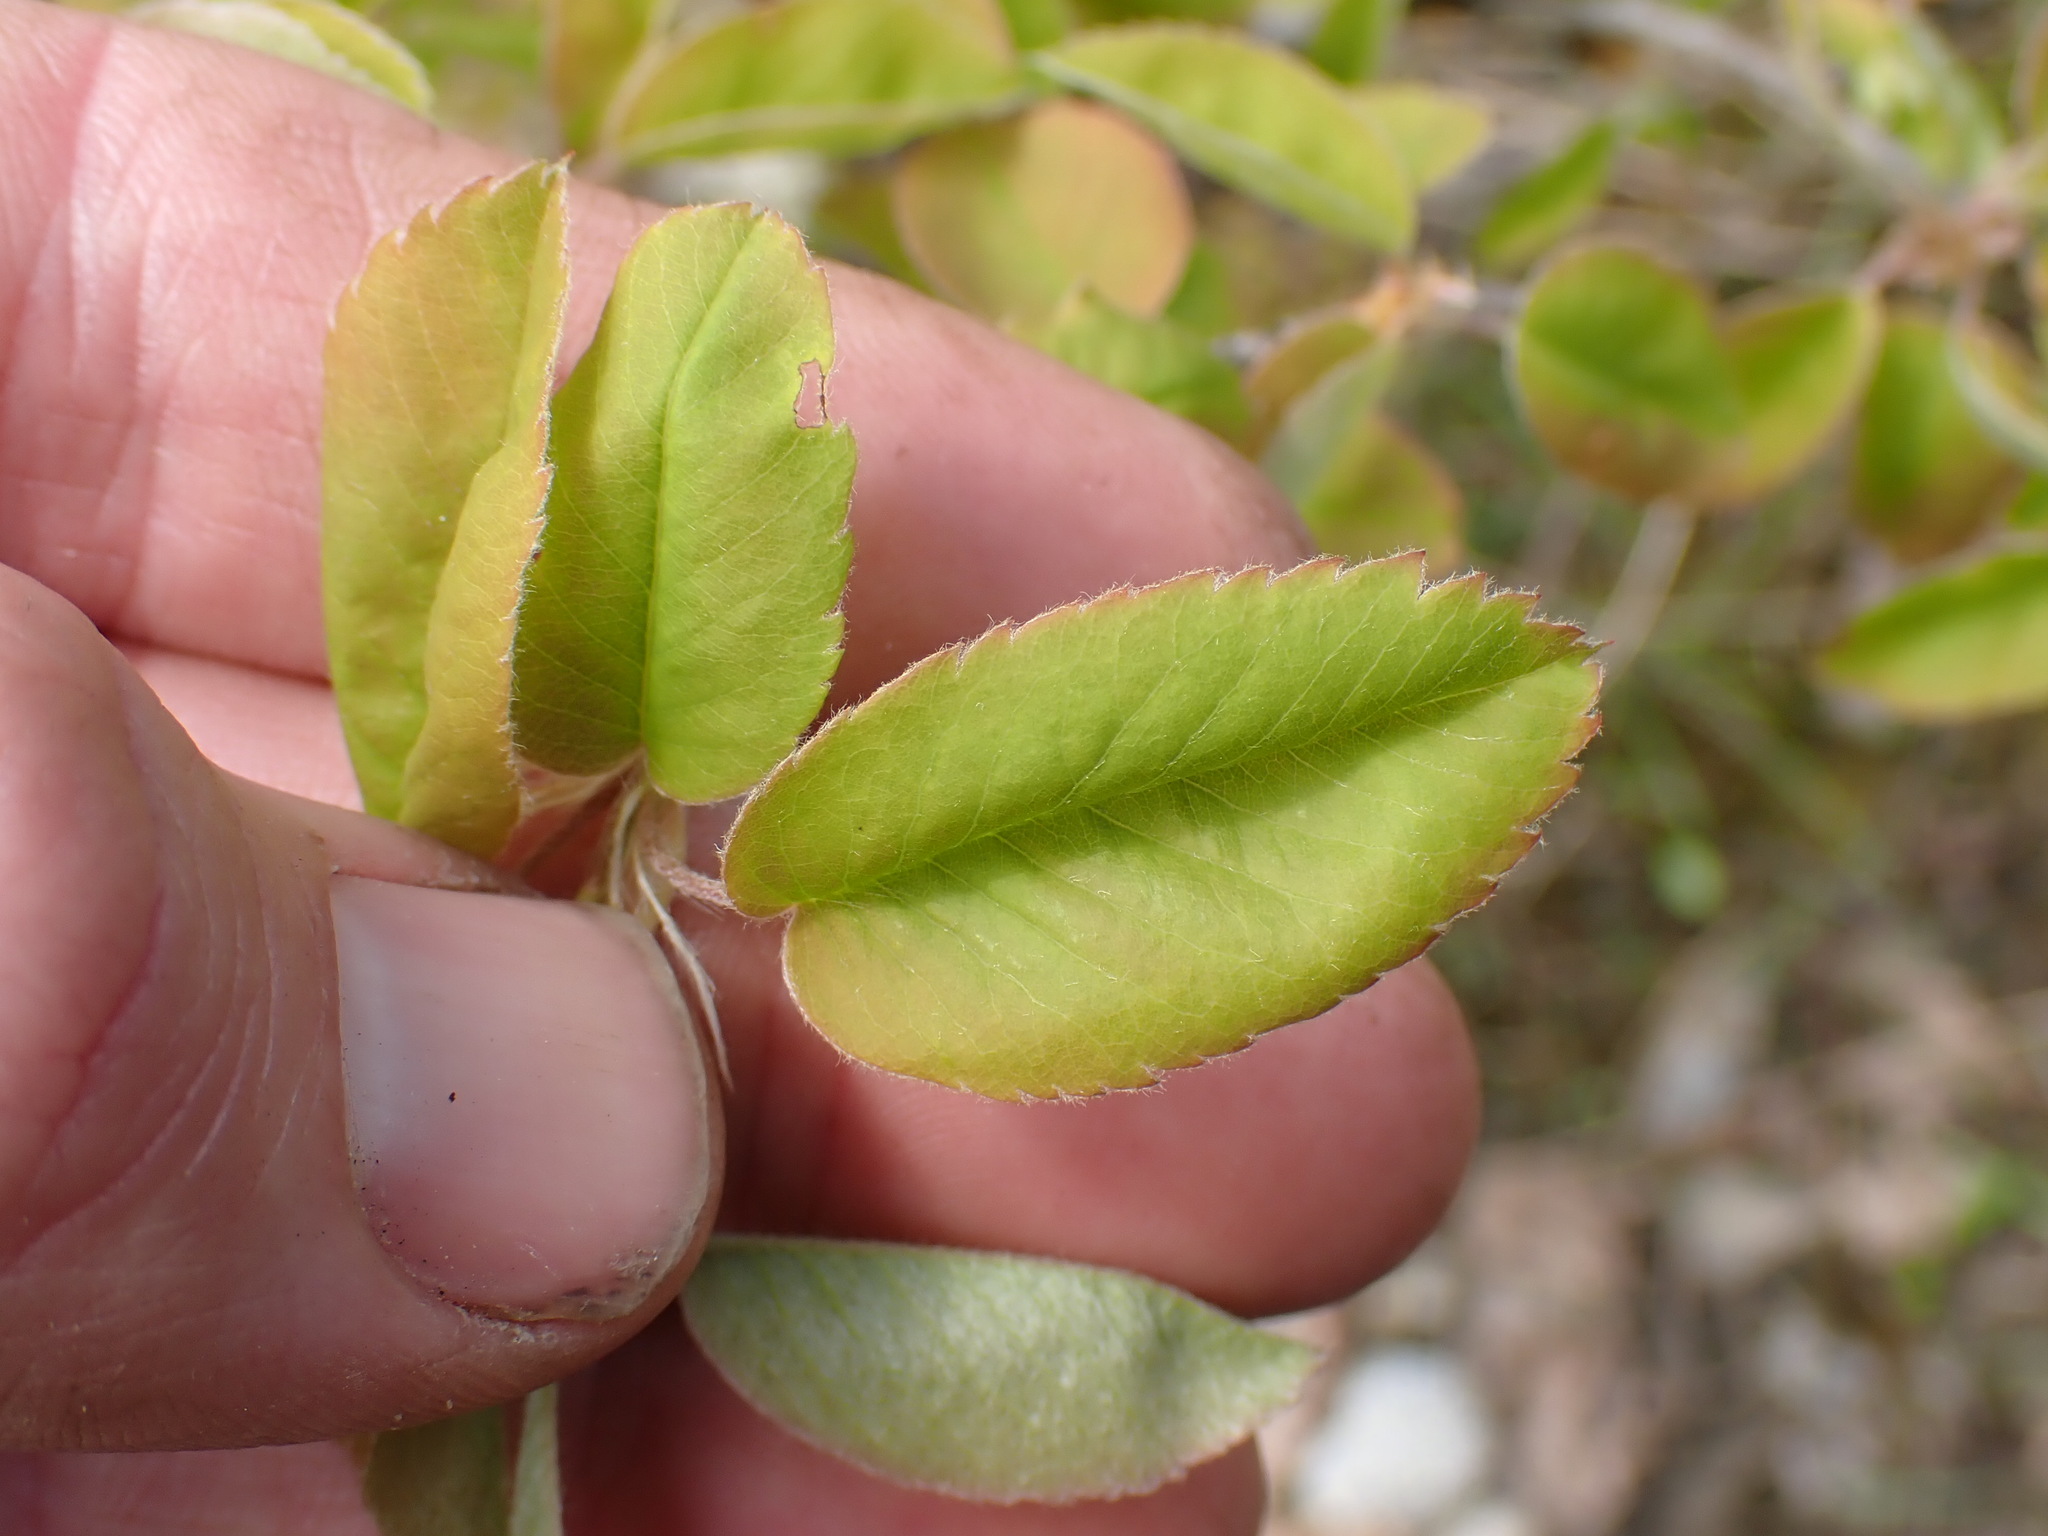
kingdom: Plantae
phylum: Tracheophyta
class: Magnoliopsida
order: Rosales
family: Rosaceae
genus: Amelanchier
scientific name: Amelanchier alnifolia
